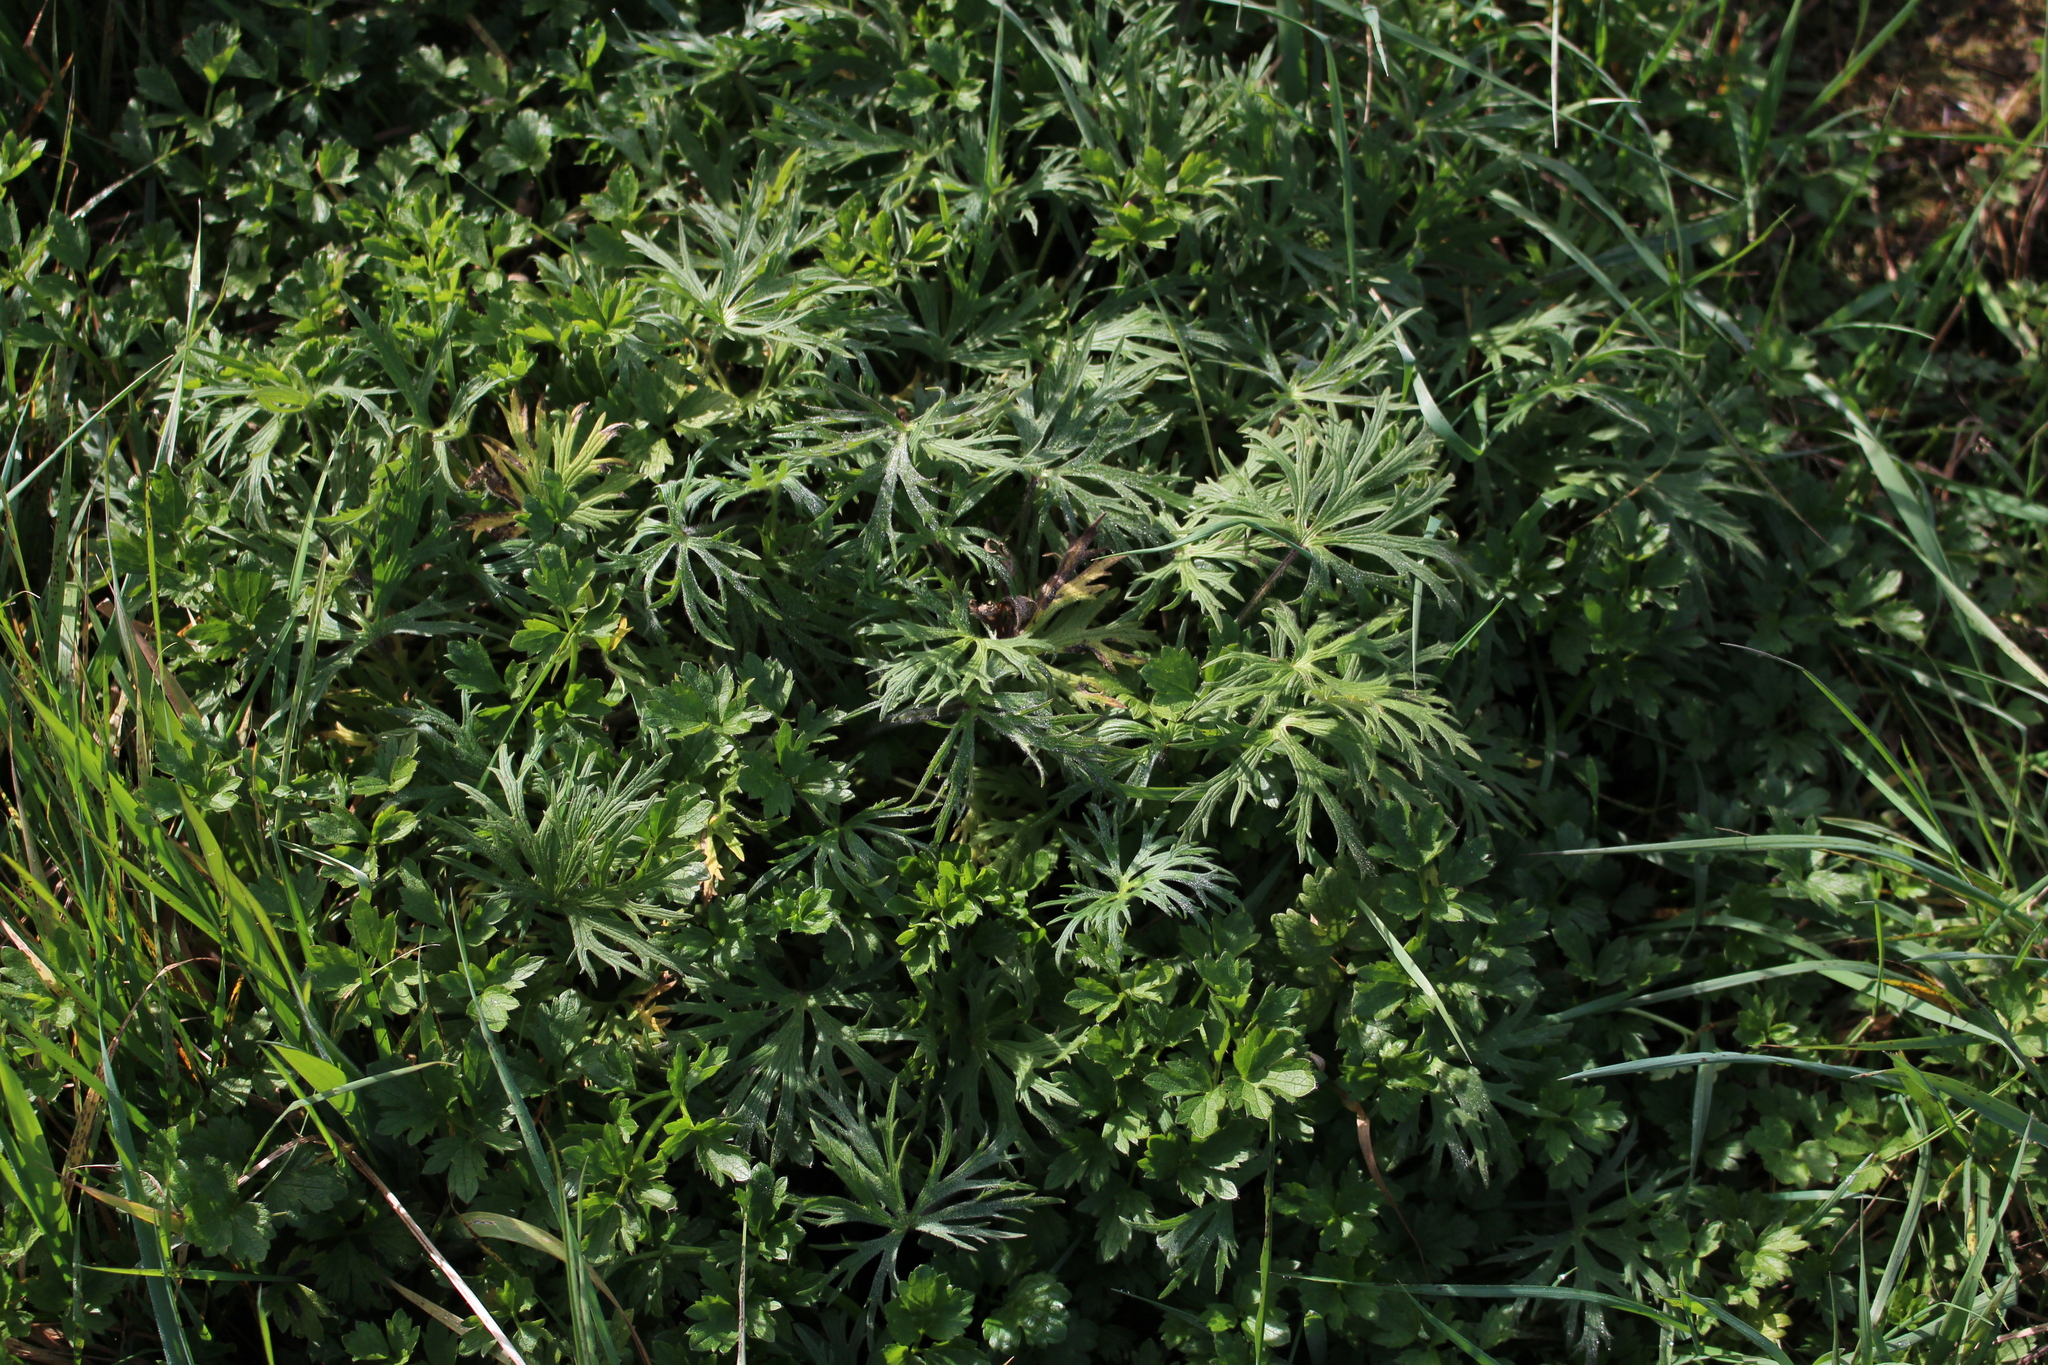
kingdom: Plantae
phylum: Tracheophyta
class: Magnoliopsida
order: Geraniales
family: Geraniaceae
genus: Geranium
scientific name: Geranium dissectum
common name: Cut-leaved crane's-bill
